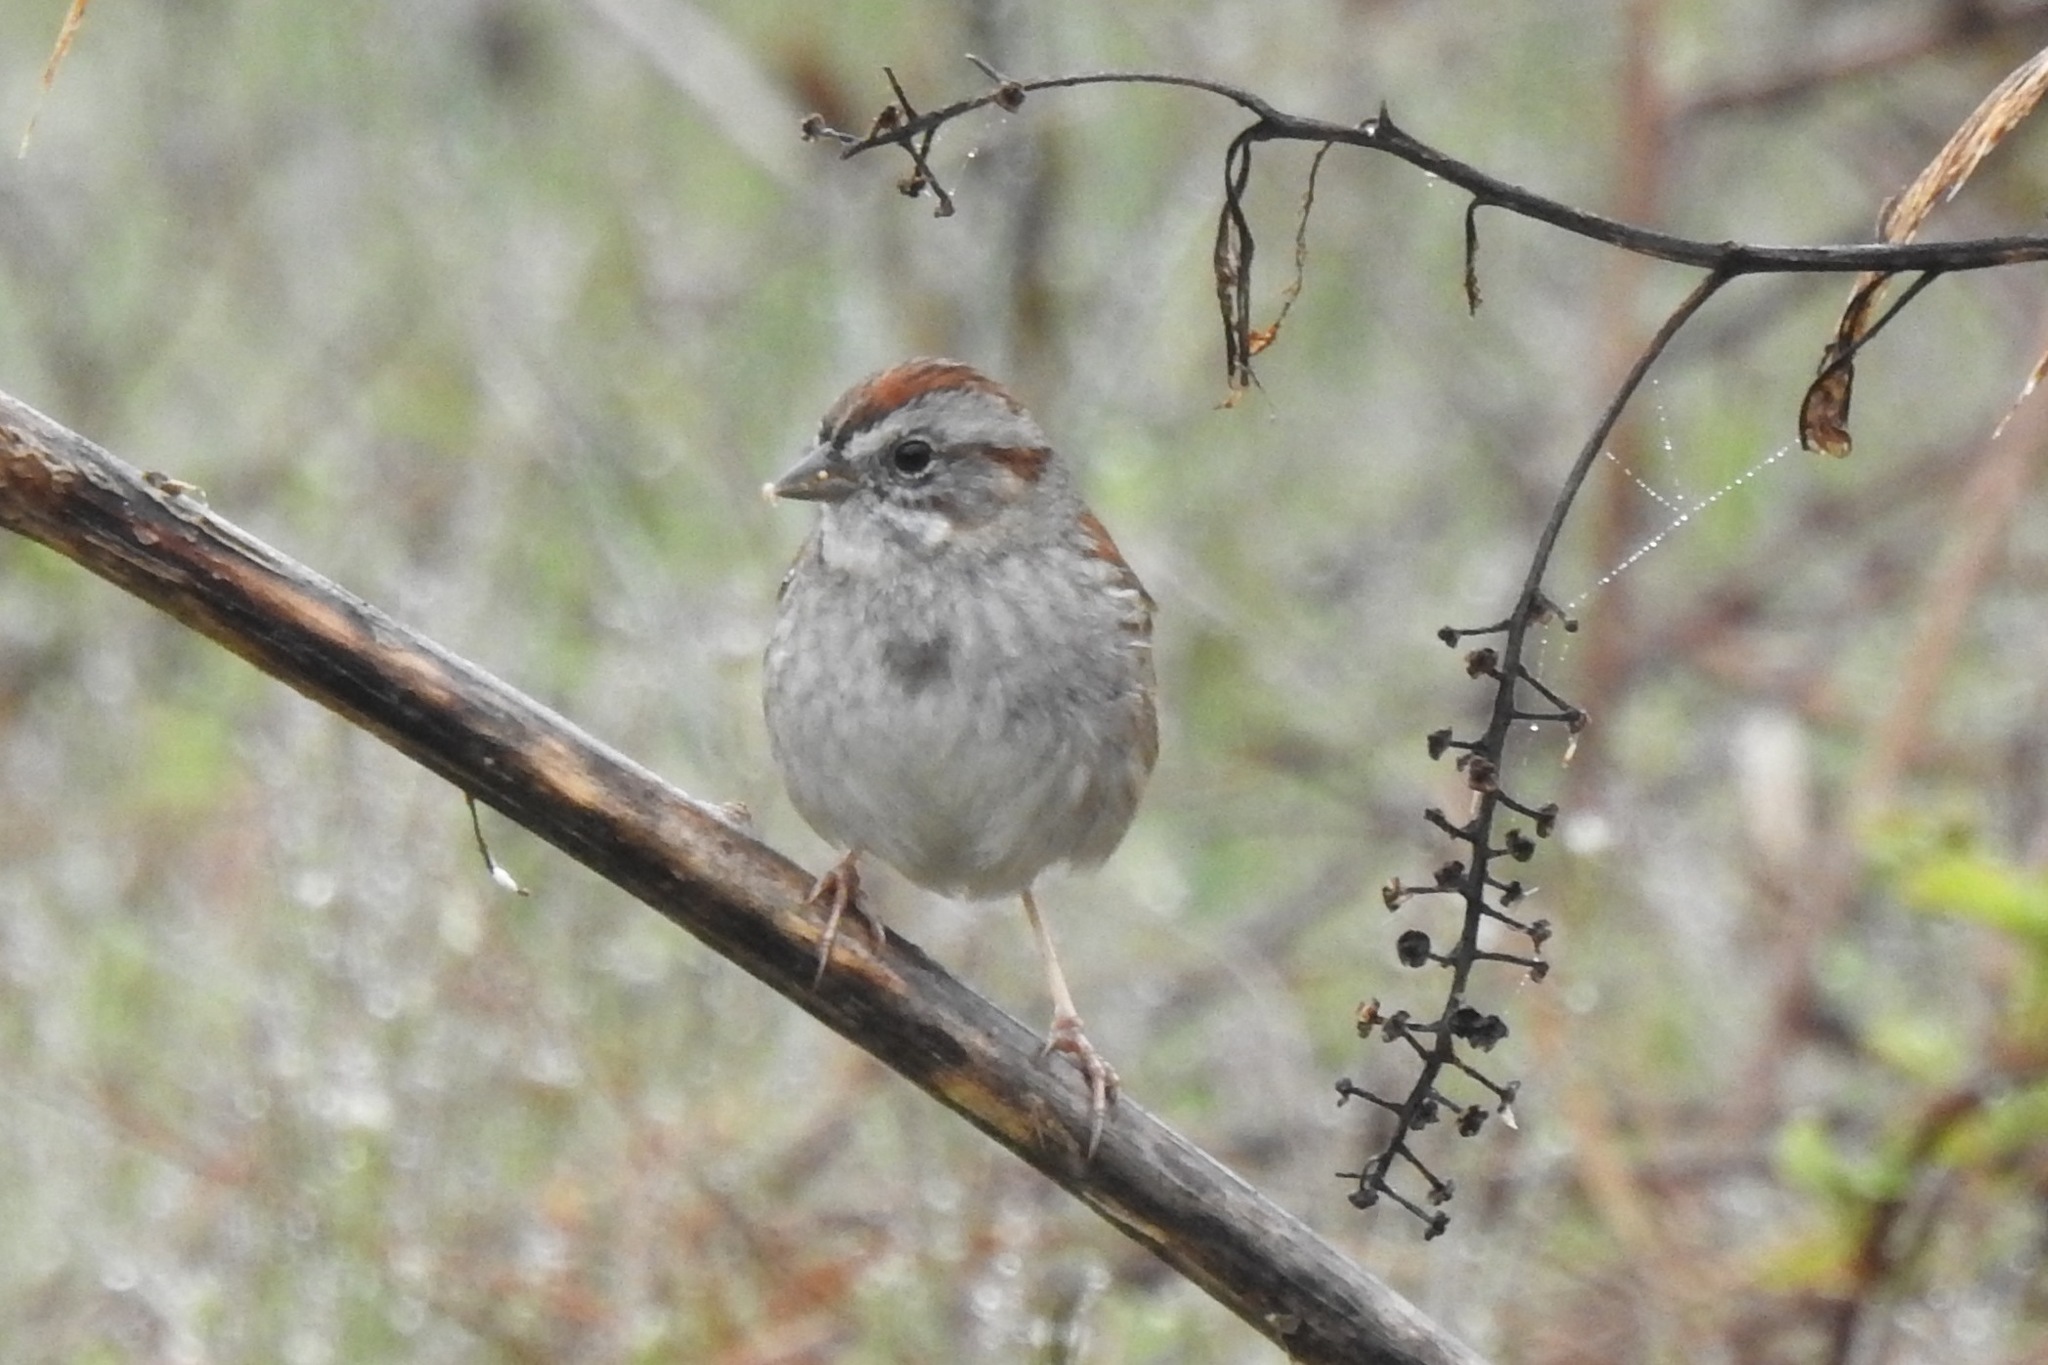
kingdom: Animalia
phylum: Chordata
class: Aves
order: Passeriformes
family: Passerellidae
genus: Melospiza
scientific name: Melospiza georgiana
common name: Swamp sparrow
